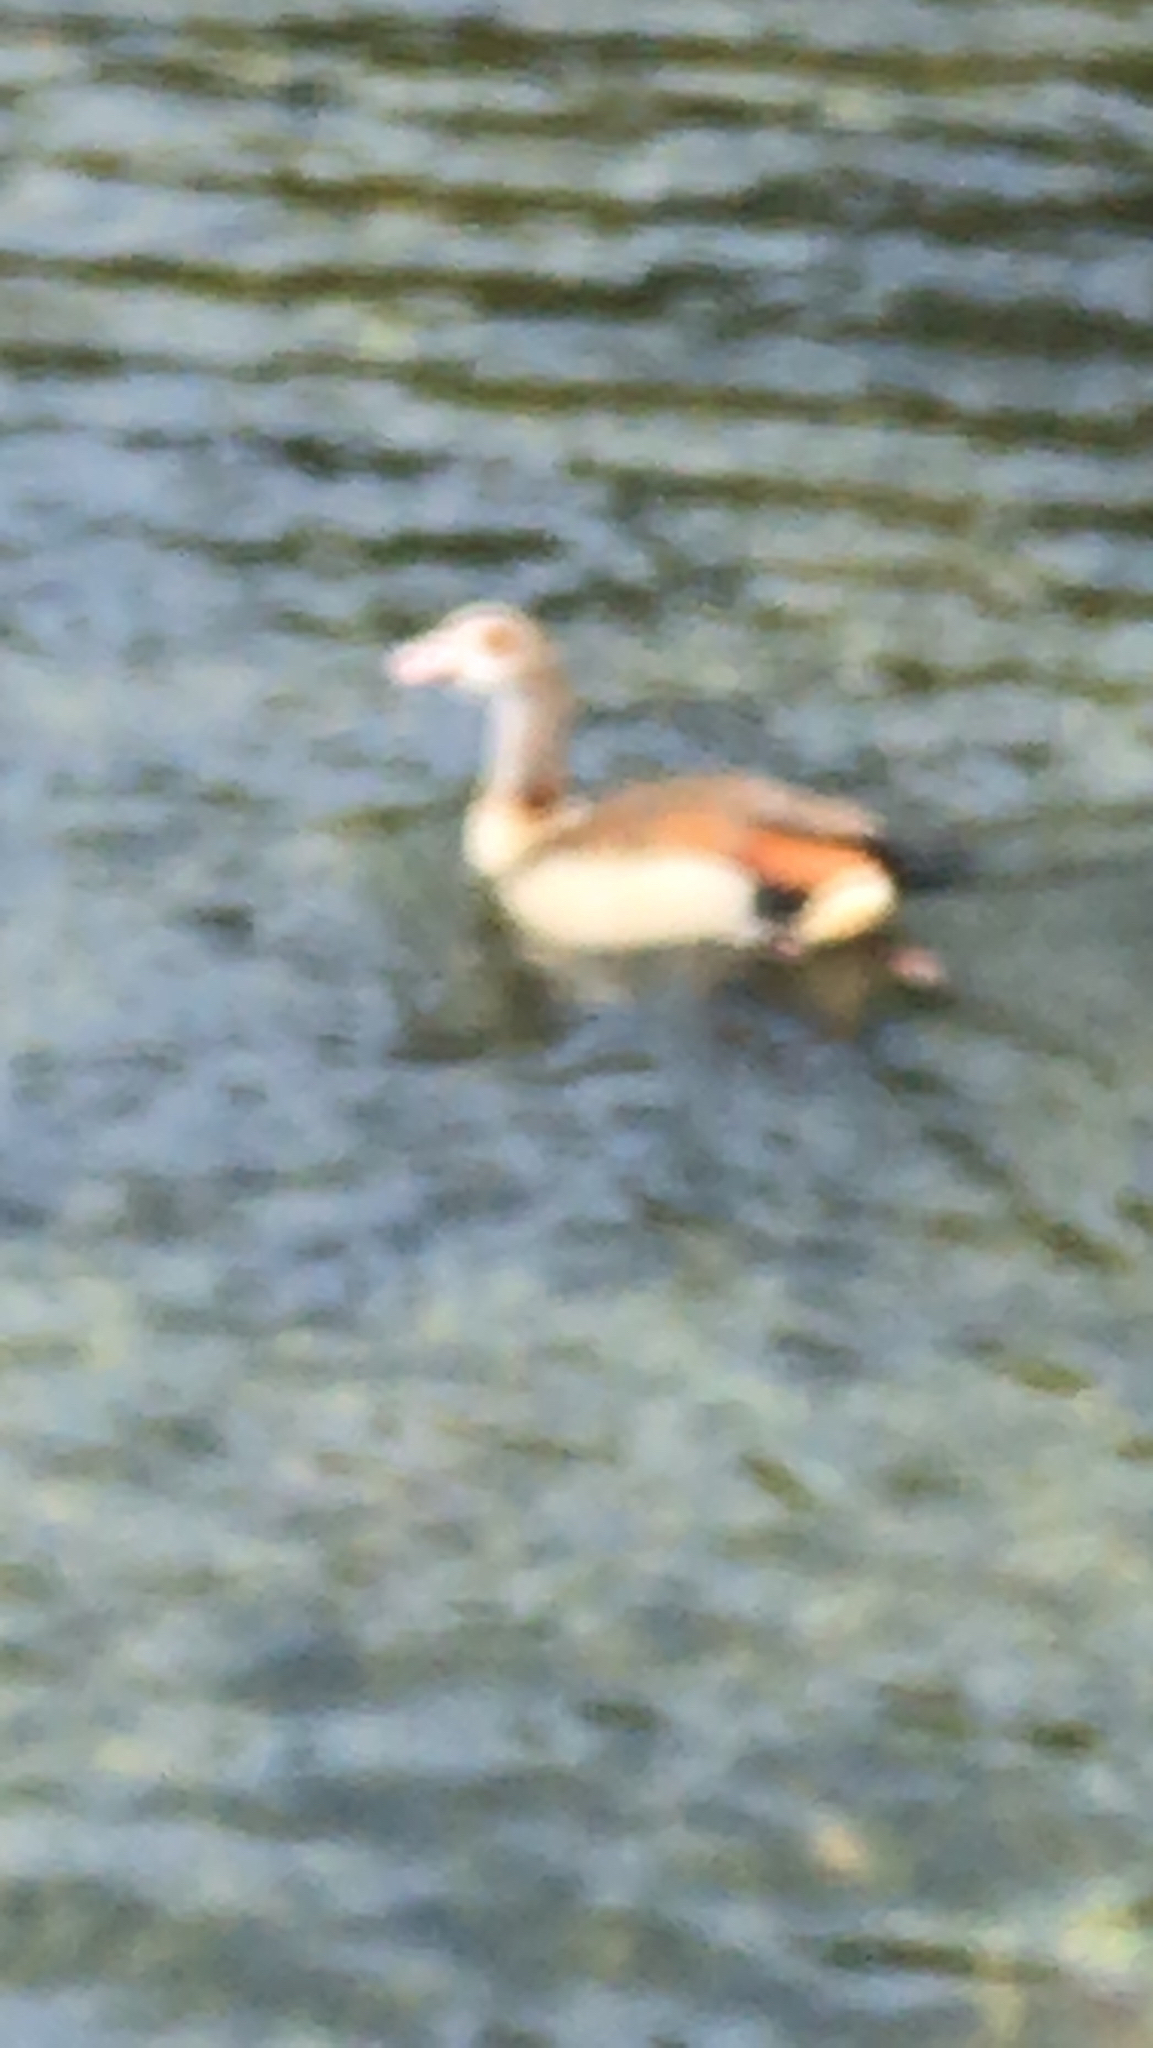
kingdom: Animalia
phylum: Chordata
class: Aves
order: Anseriformes
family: Anatidae
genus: Alopochen
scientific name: Alopochen aegyptiaca
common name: Egyptian goose
